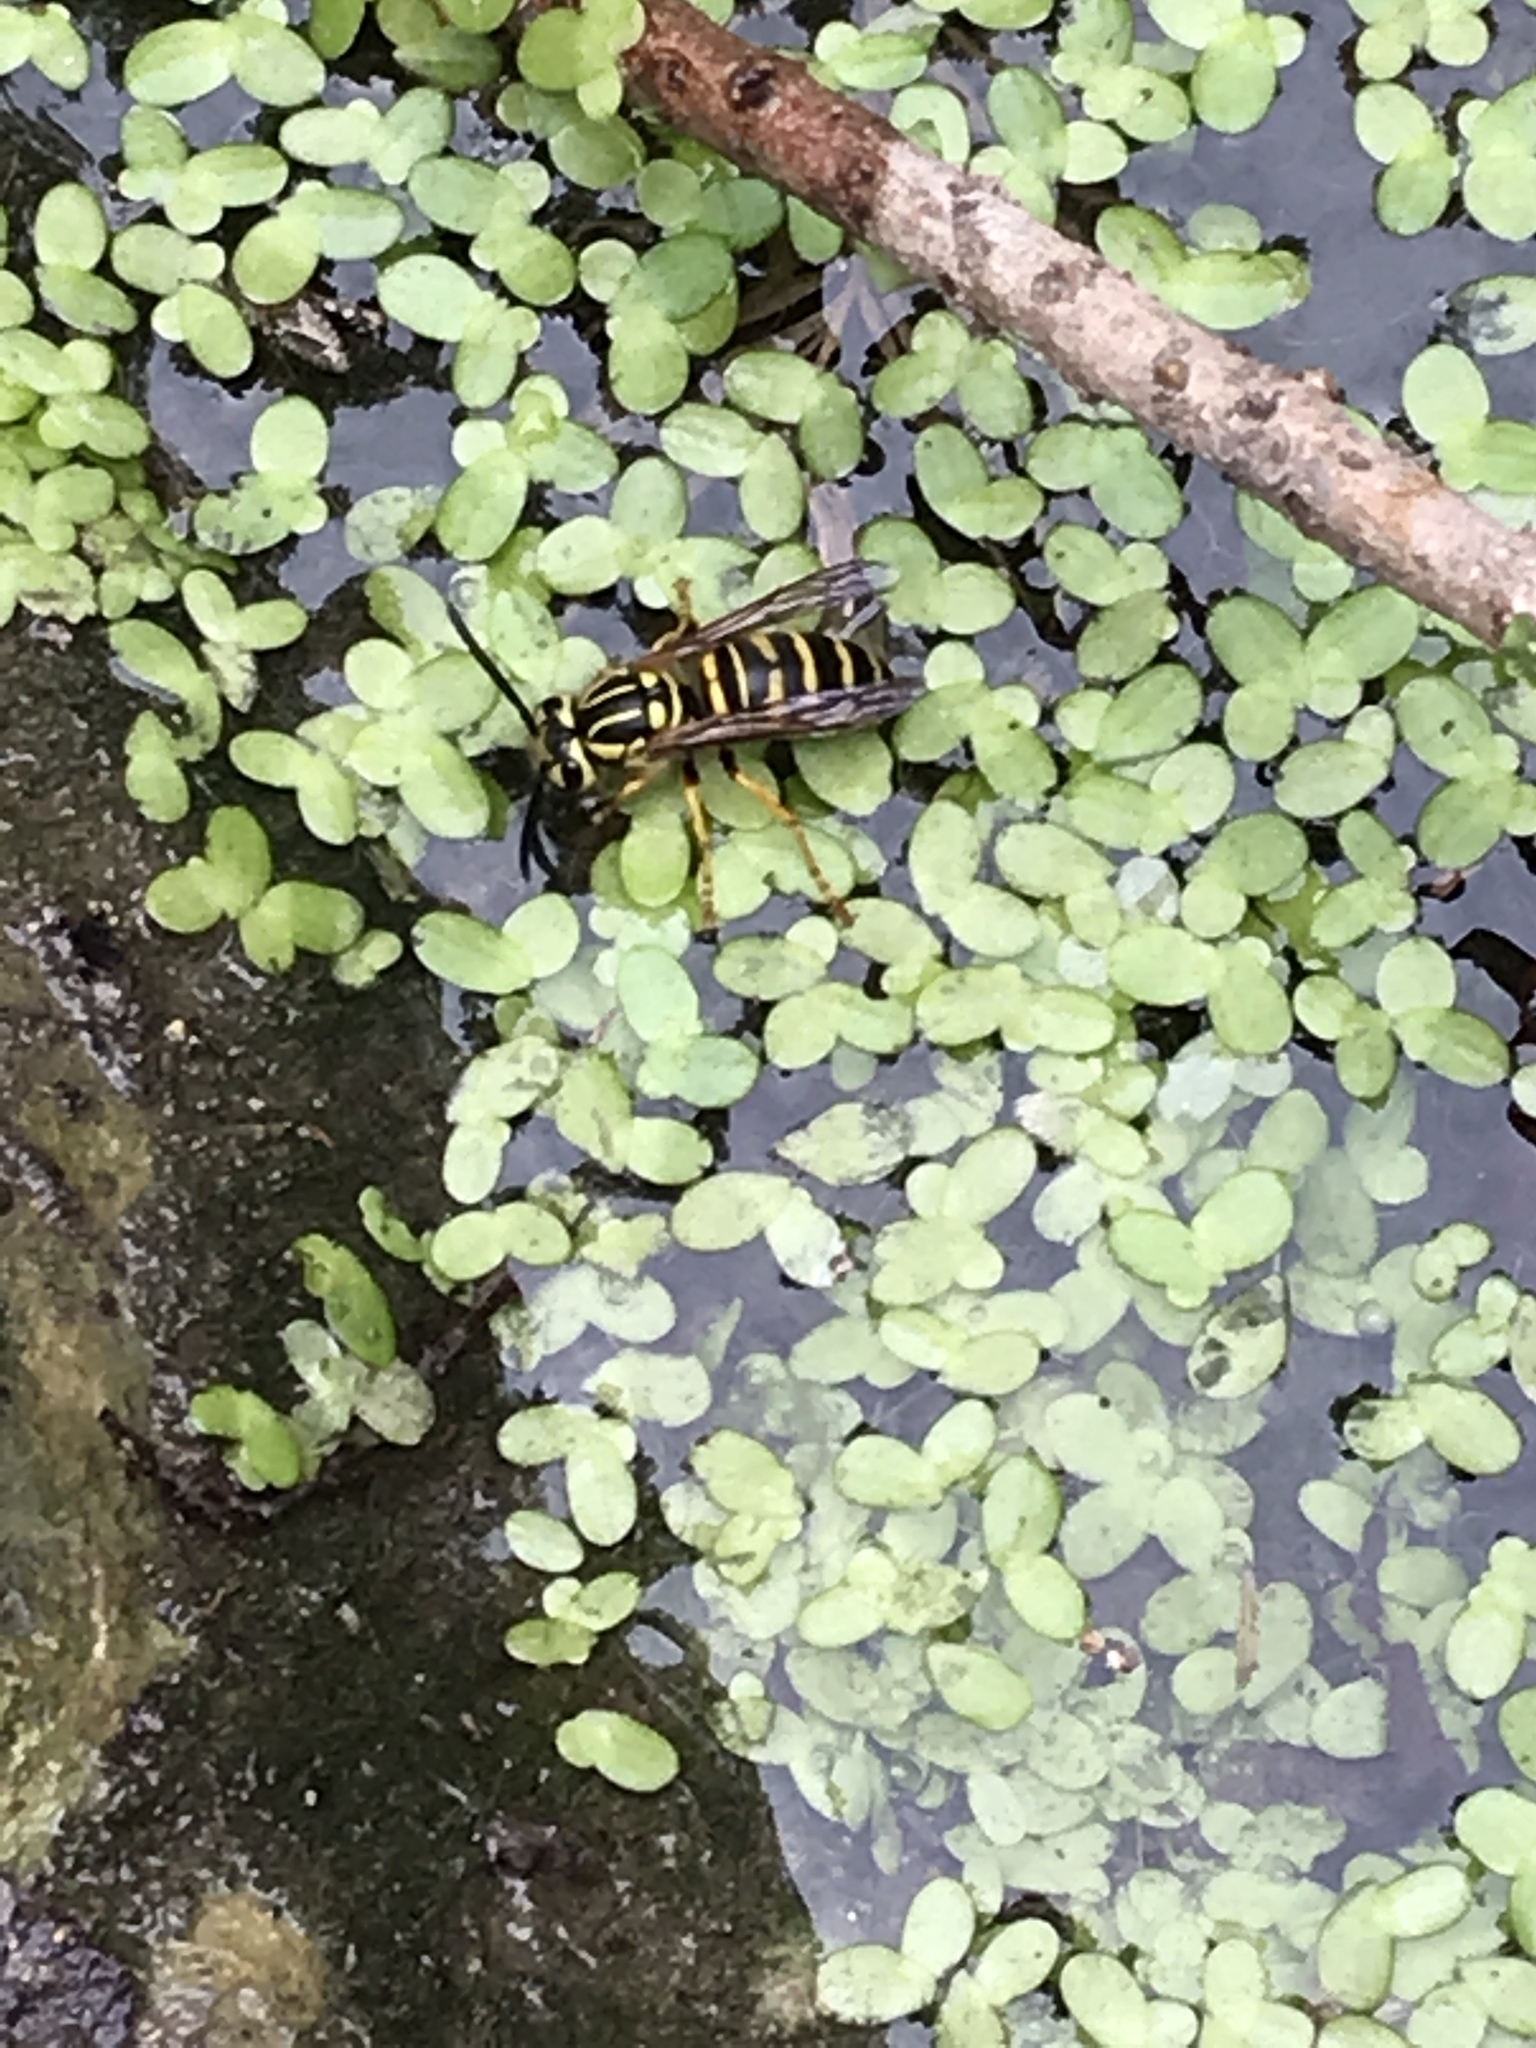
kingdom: Animalia
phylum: Arthropoda
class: Insecta
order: Hymenoptera
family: Vespidae
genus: Vespula
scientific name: Vespula squamosa
